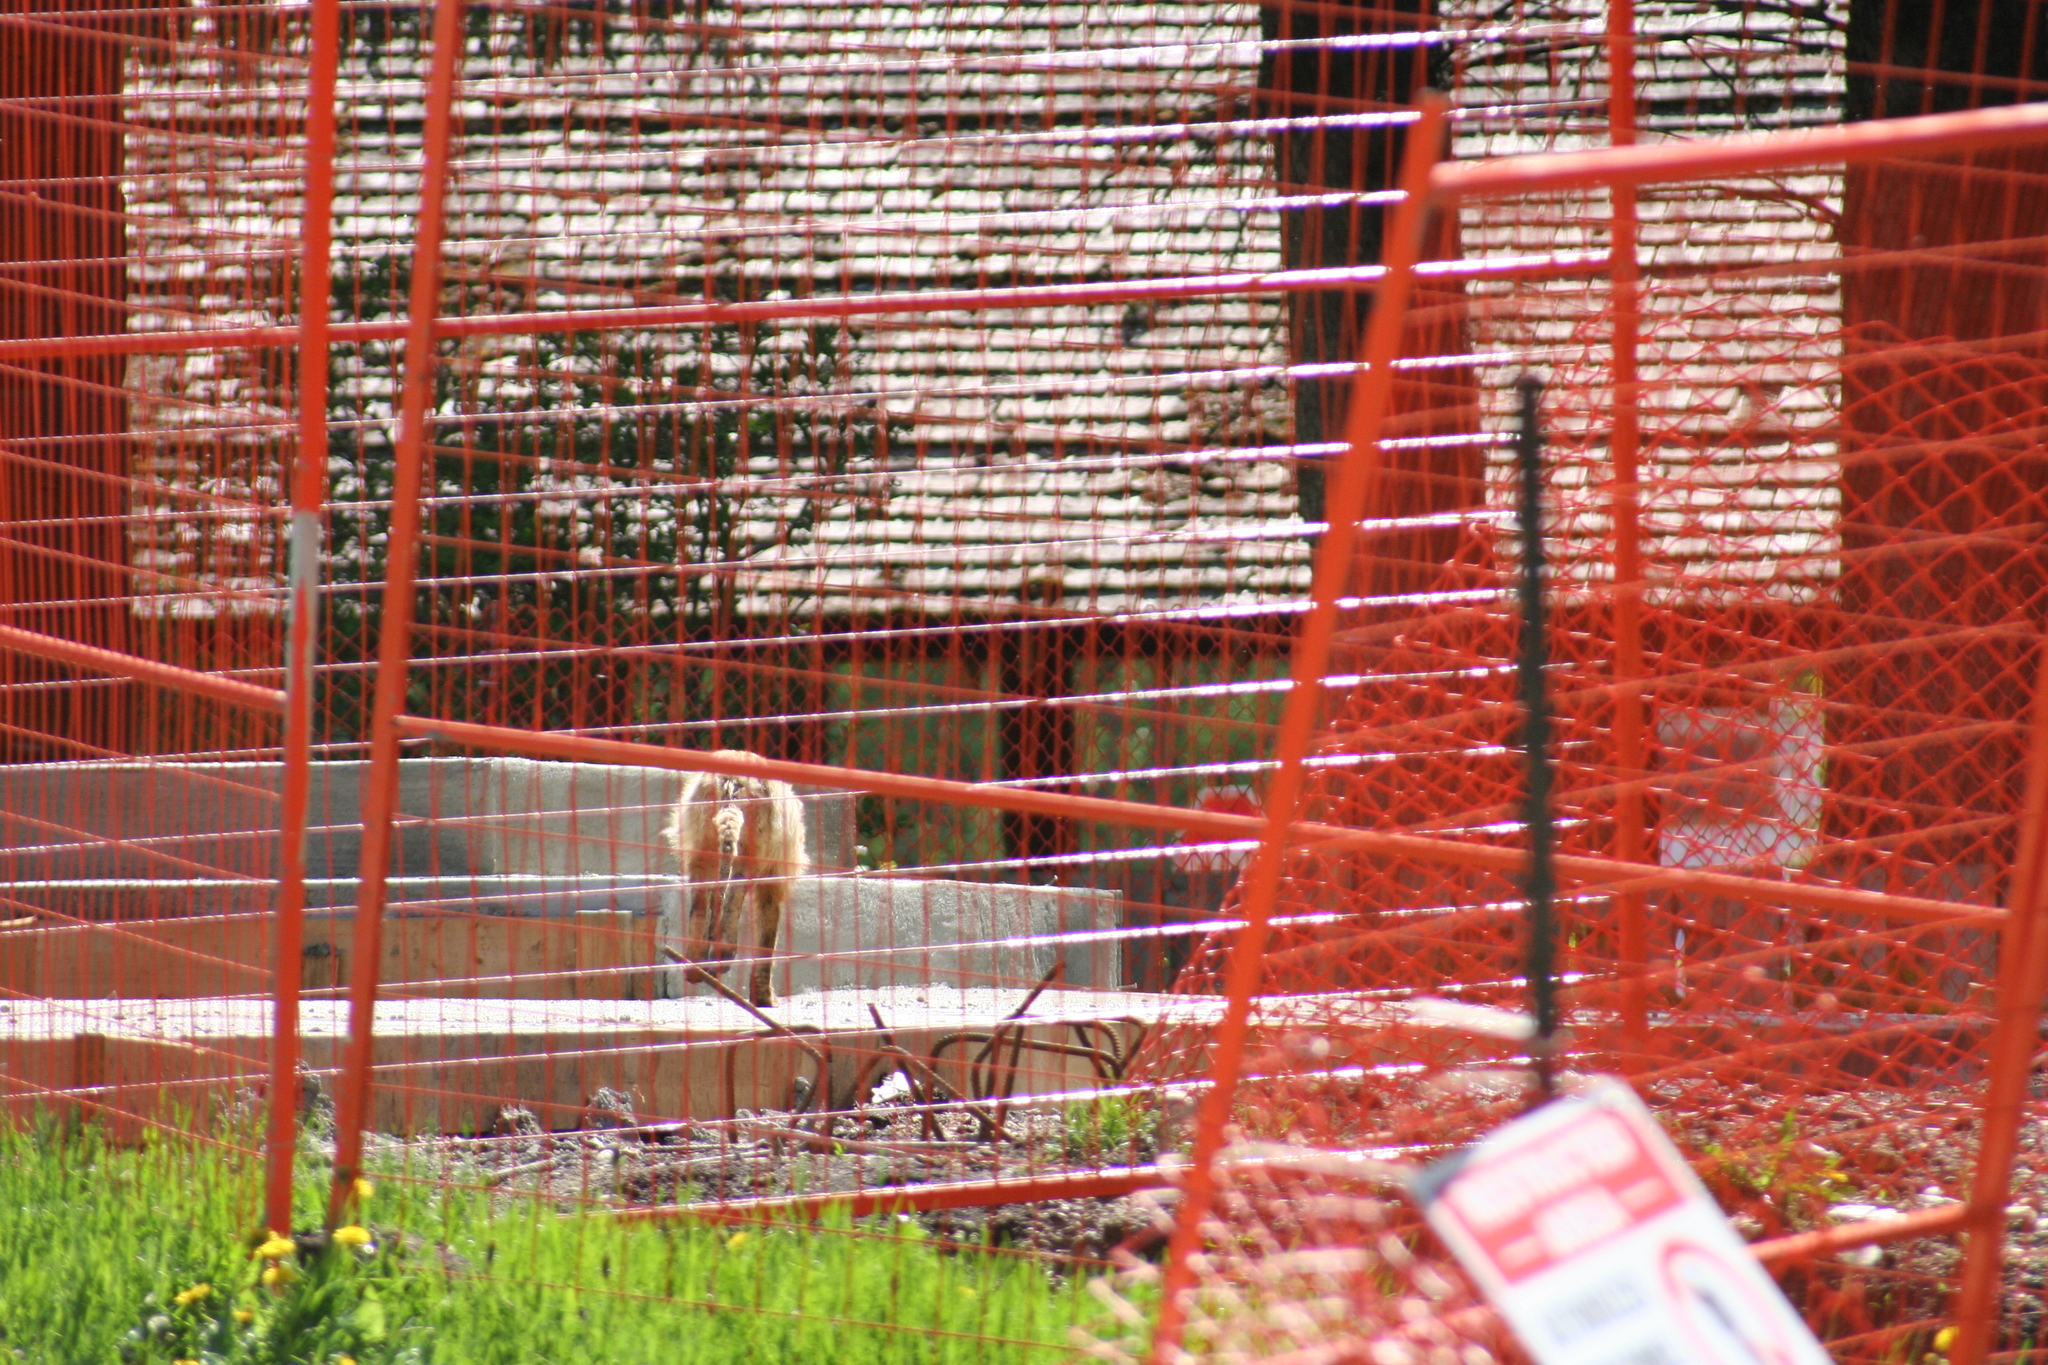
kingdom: Animalia
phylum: Chordata
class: Mammalia
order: Carnivora
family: Canidae
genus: Vulpes
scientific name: Vulpes vulpes
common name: Red fox
